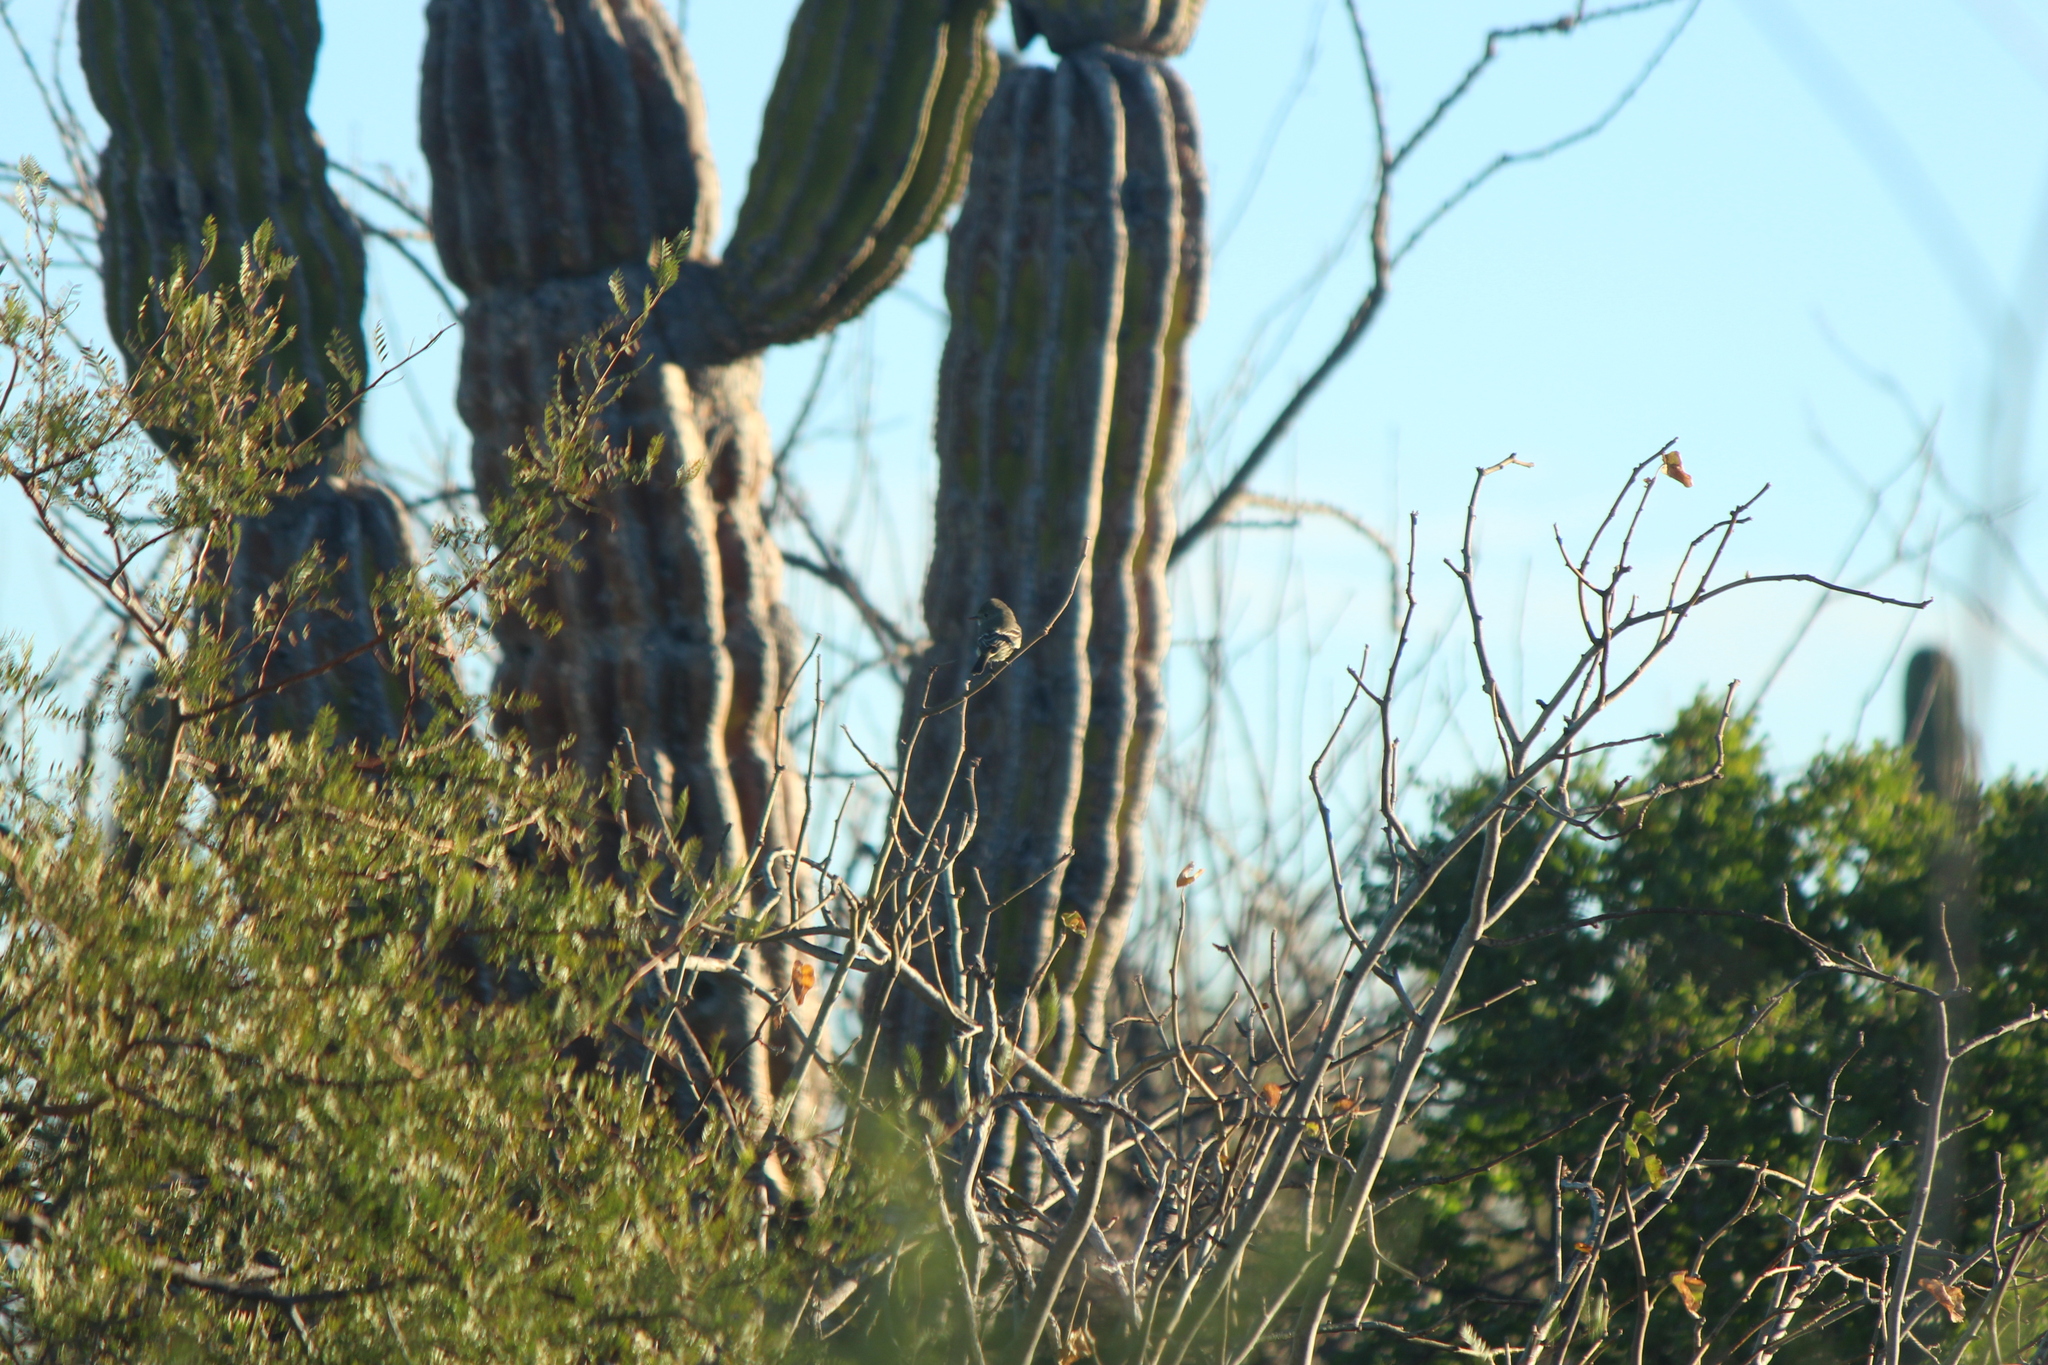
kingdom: Animalia
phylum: Chordata
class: Aves
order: Passeriformes
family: Tyrannidae
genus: Empidonax
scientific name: Empidonax wrightii
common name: Gray flycatcher
